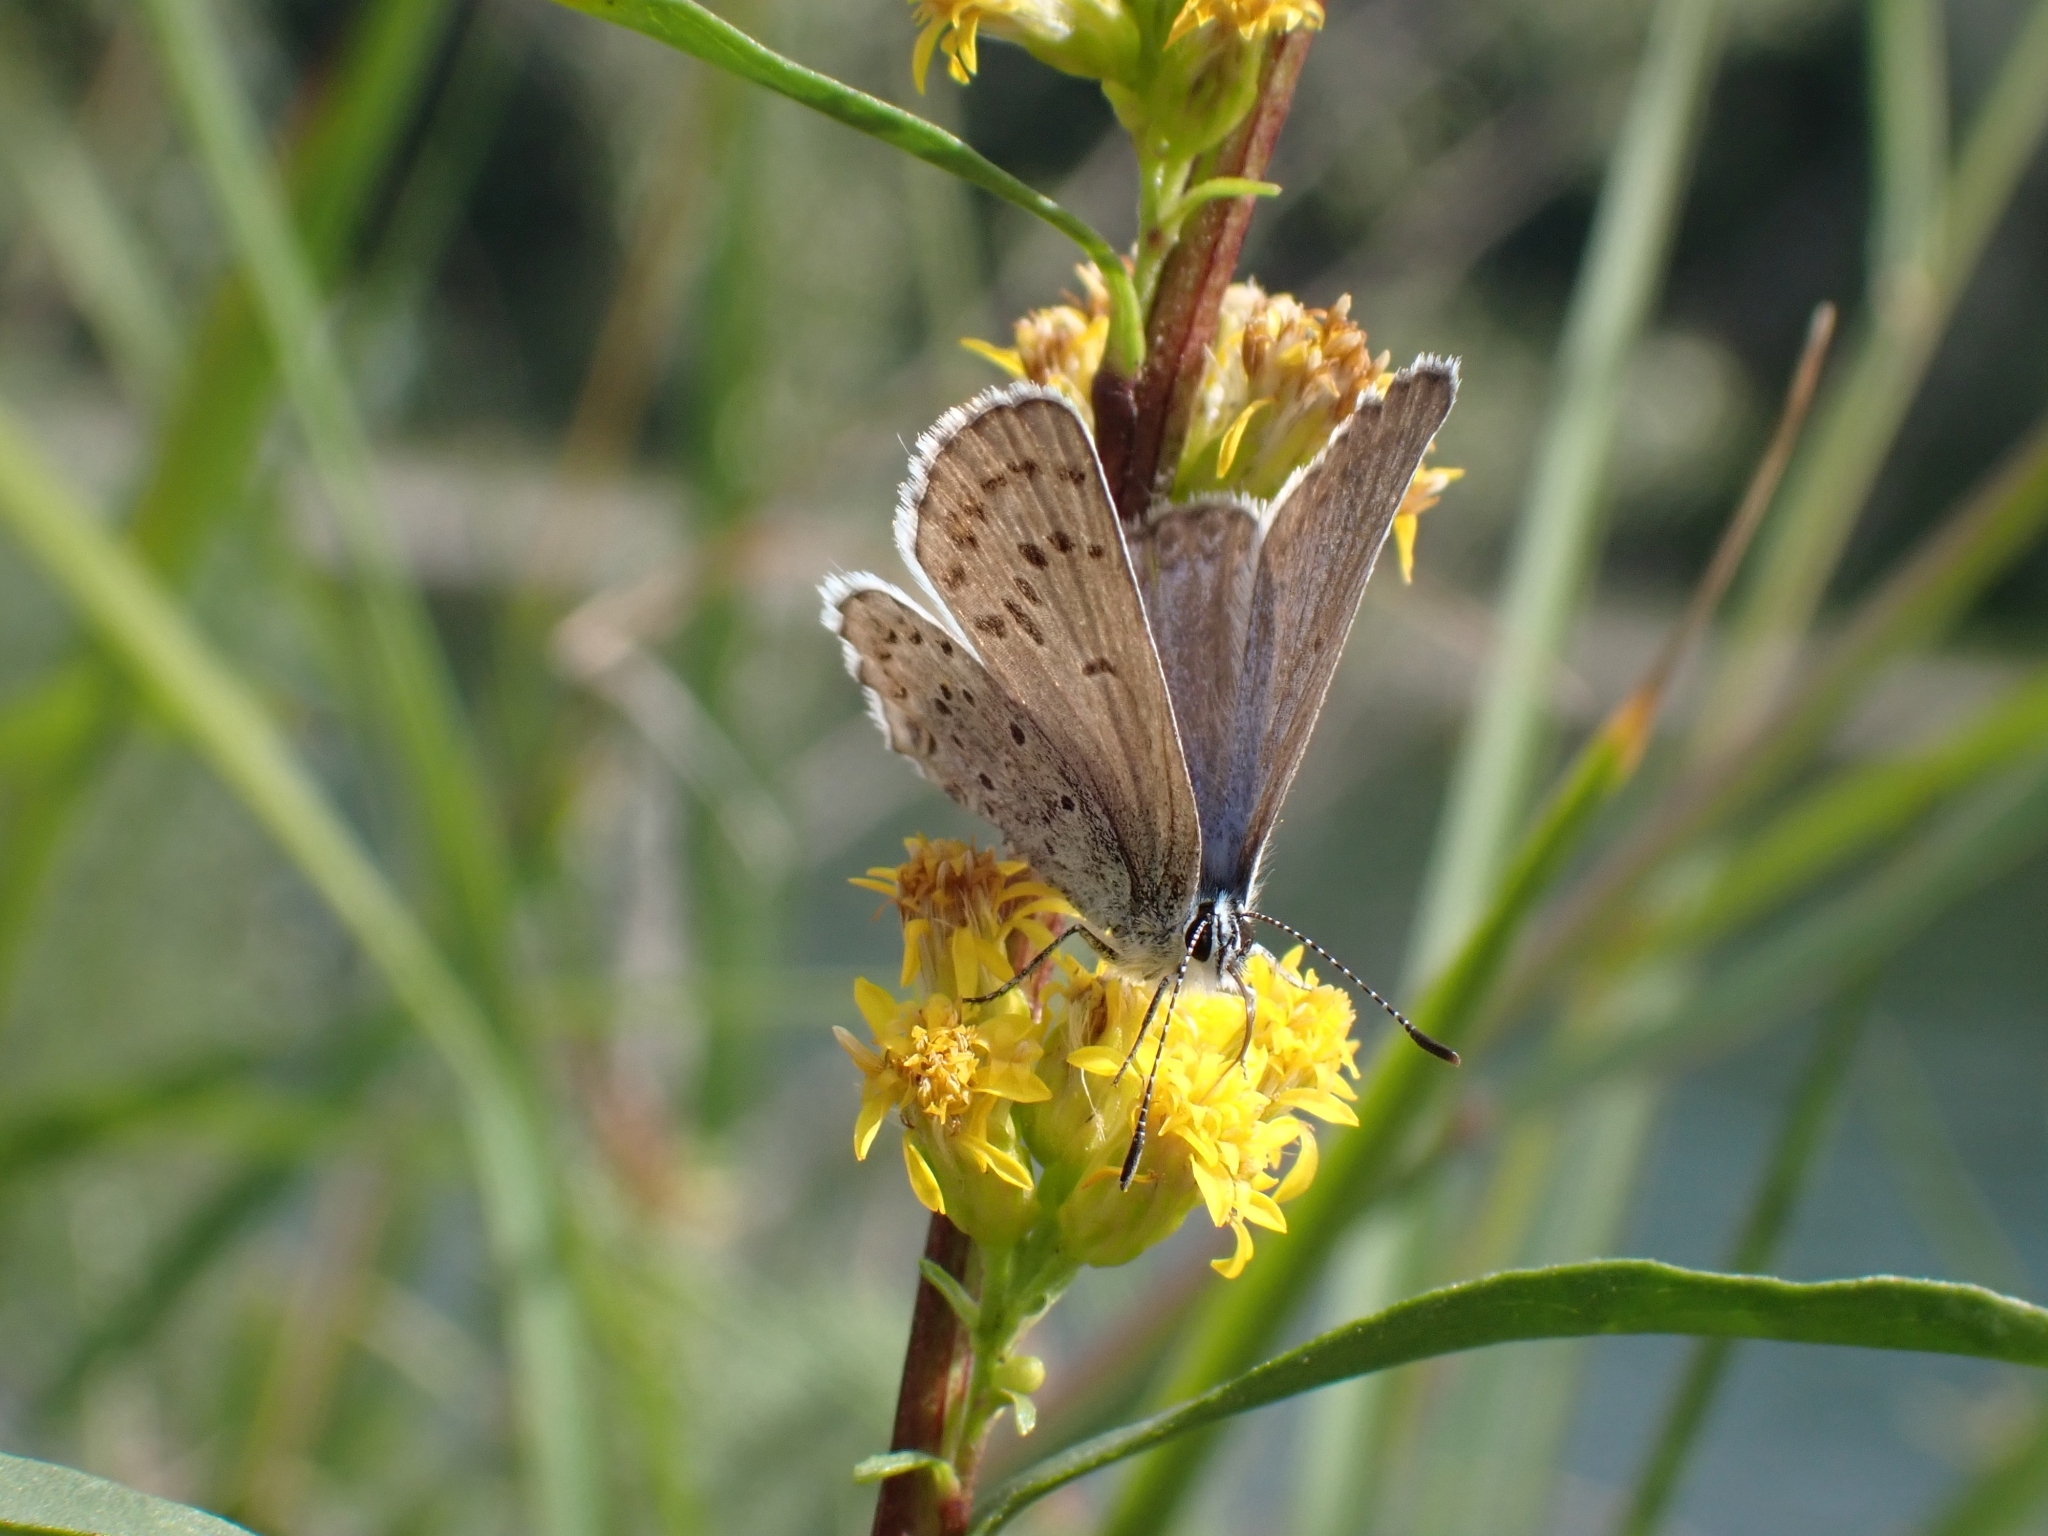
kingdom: Animalia
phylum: Arthropoda
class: Insecta
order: Lepidoptera
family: Lycaenidae
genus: Lycaeides
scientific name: Lycaeides idas
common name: Northern blue
